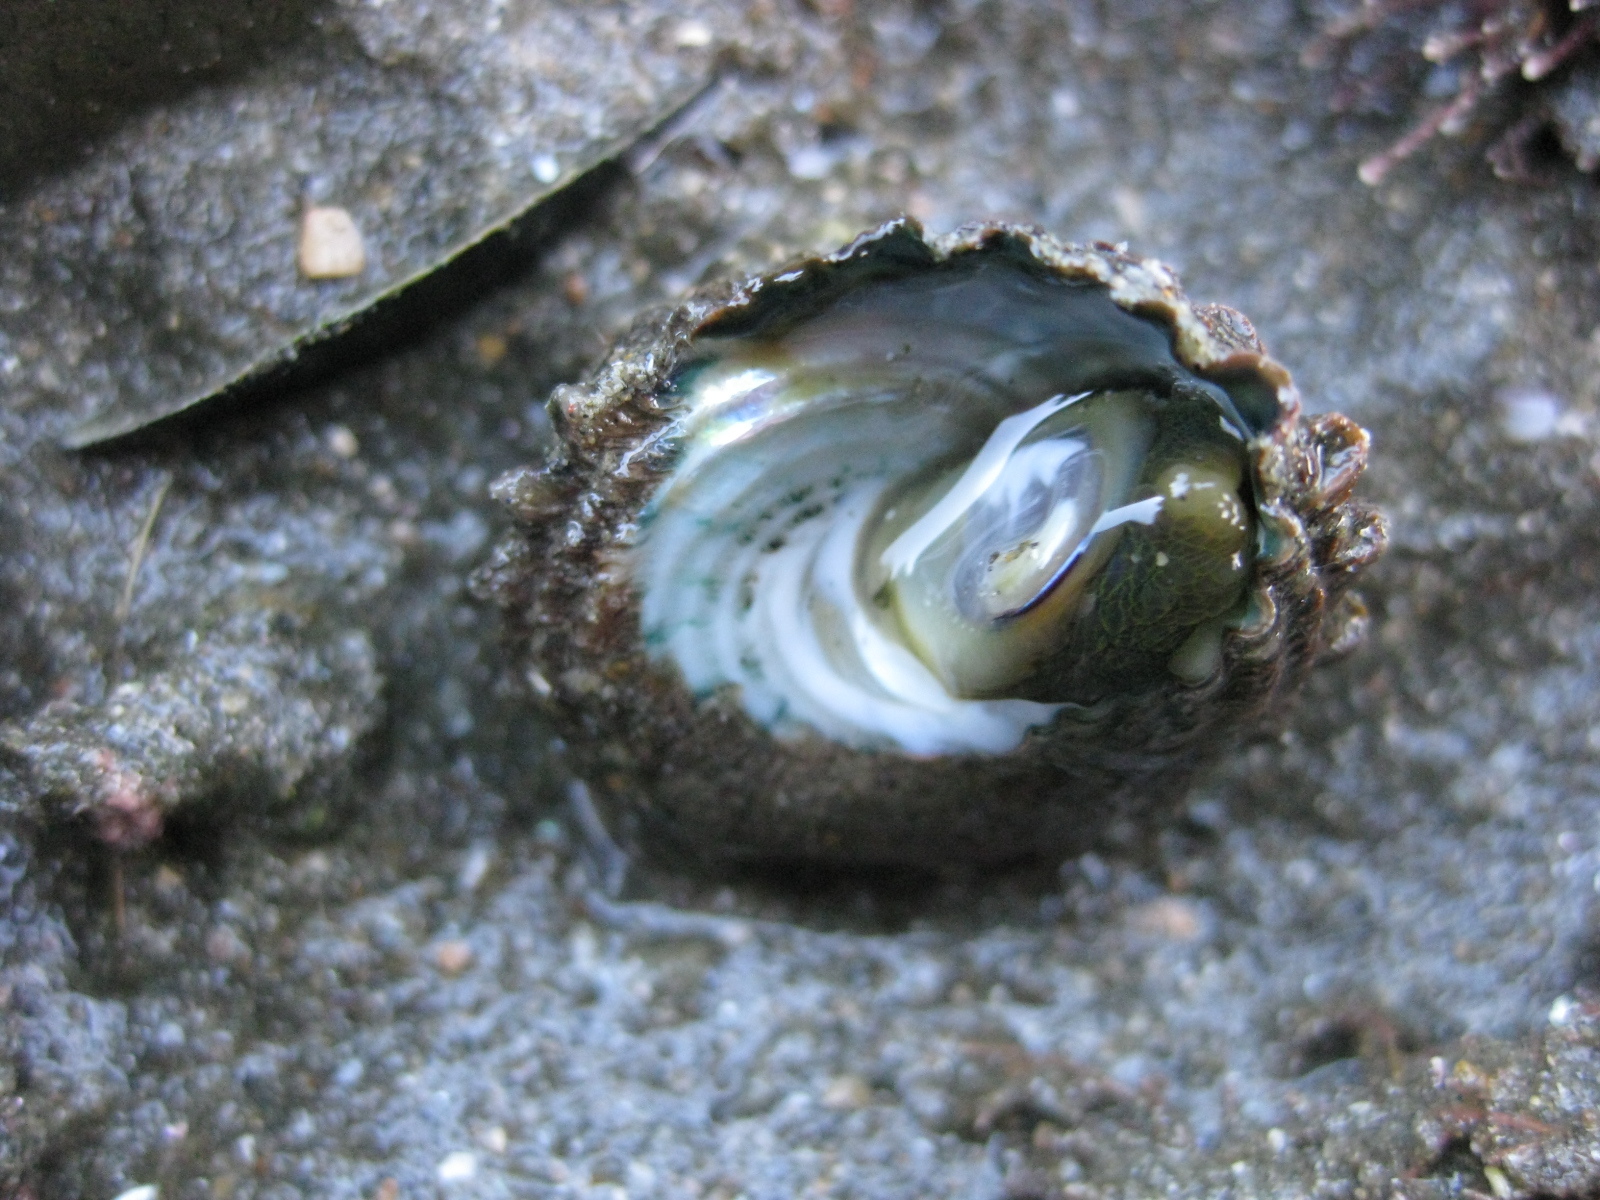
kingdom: Animalia
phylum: Mollusca
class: Gastropoda
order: Trochida
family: Turbinidae
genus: Cookia
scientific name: Cookia sulcata
